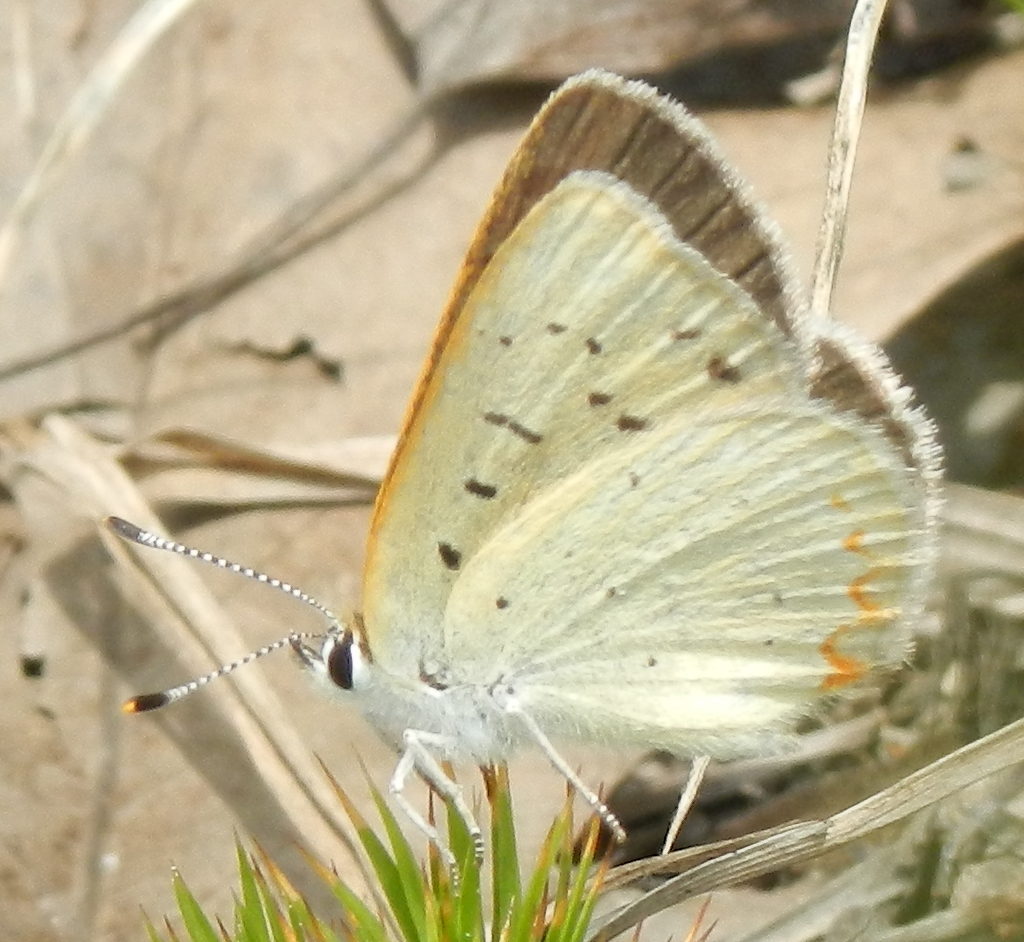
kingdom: Animalia
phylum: Arthropoda
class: Insecta
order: Lepidoptera
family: Lycaenidae
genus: Tharsalea
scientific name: Tharsalea epixanthe
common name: Bog copper
